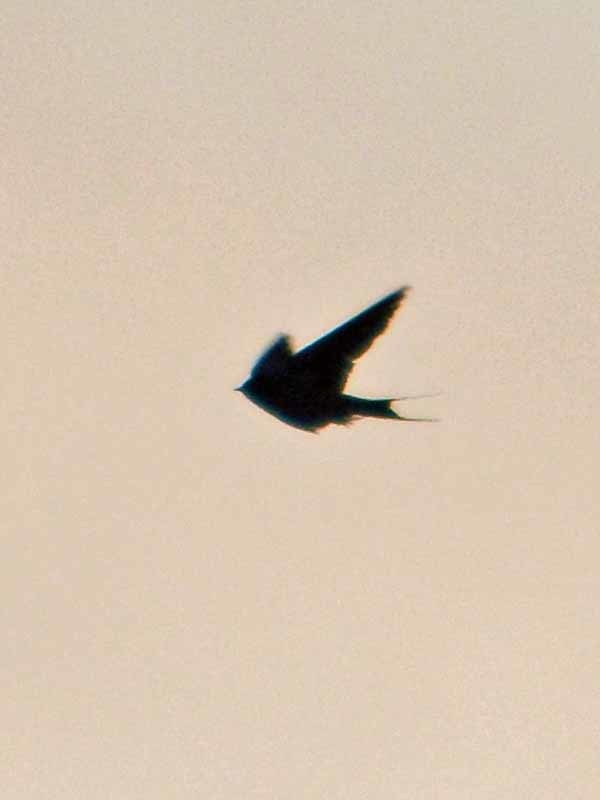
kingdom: Animalia
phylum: Chordata
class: Aves
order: Passeriformes
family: Hirundinidae
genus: Hirundo
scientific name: Hirundo rustica
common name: Barn swallow
